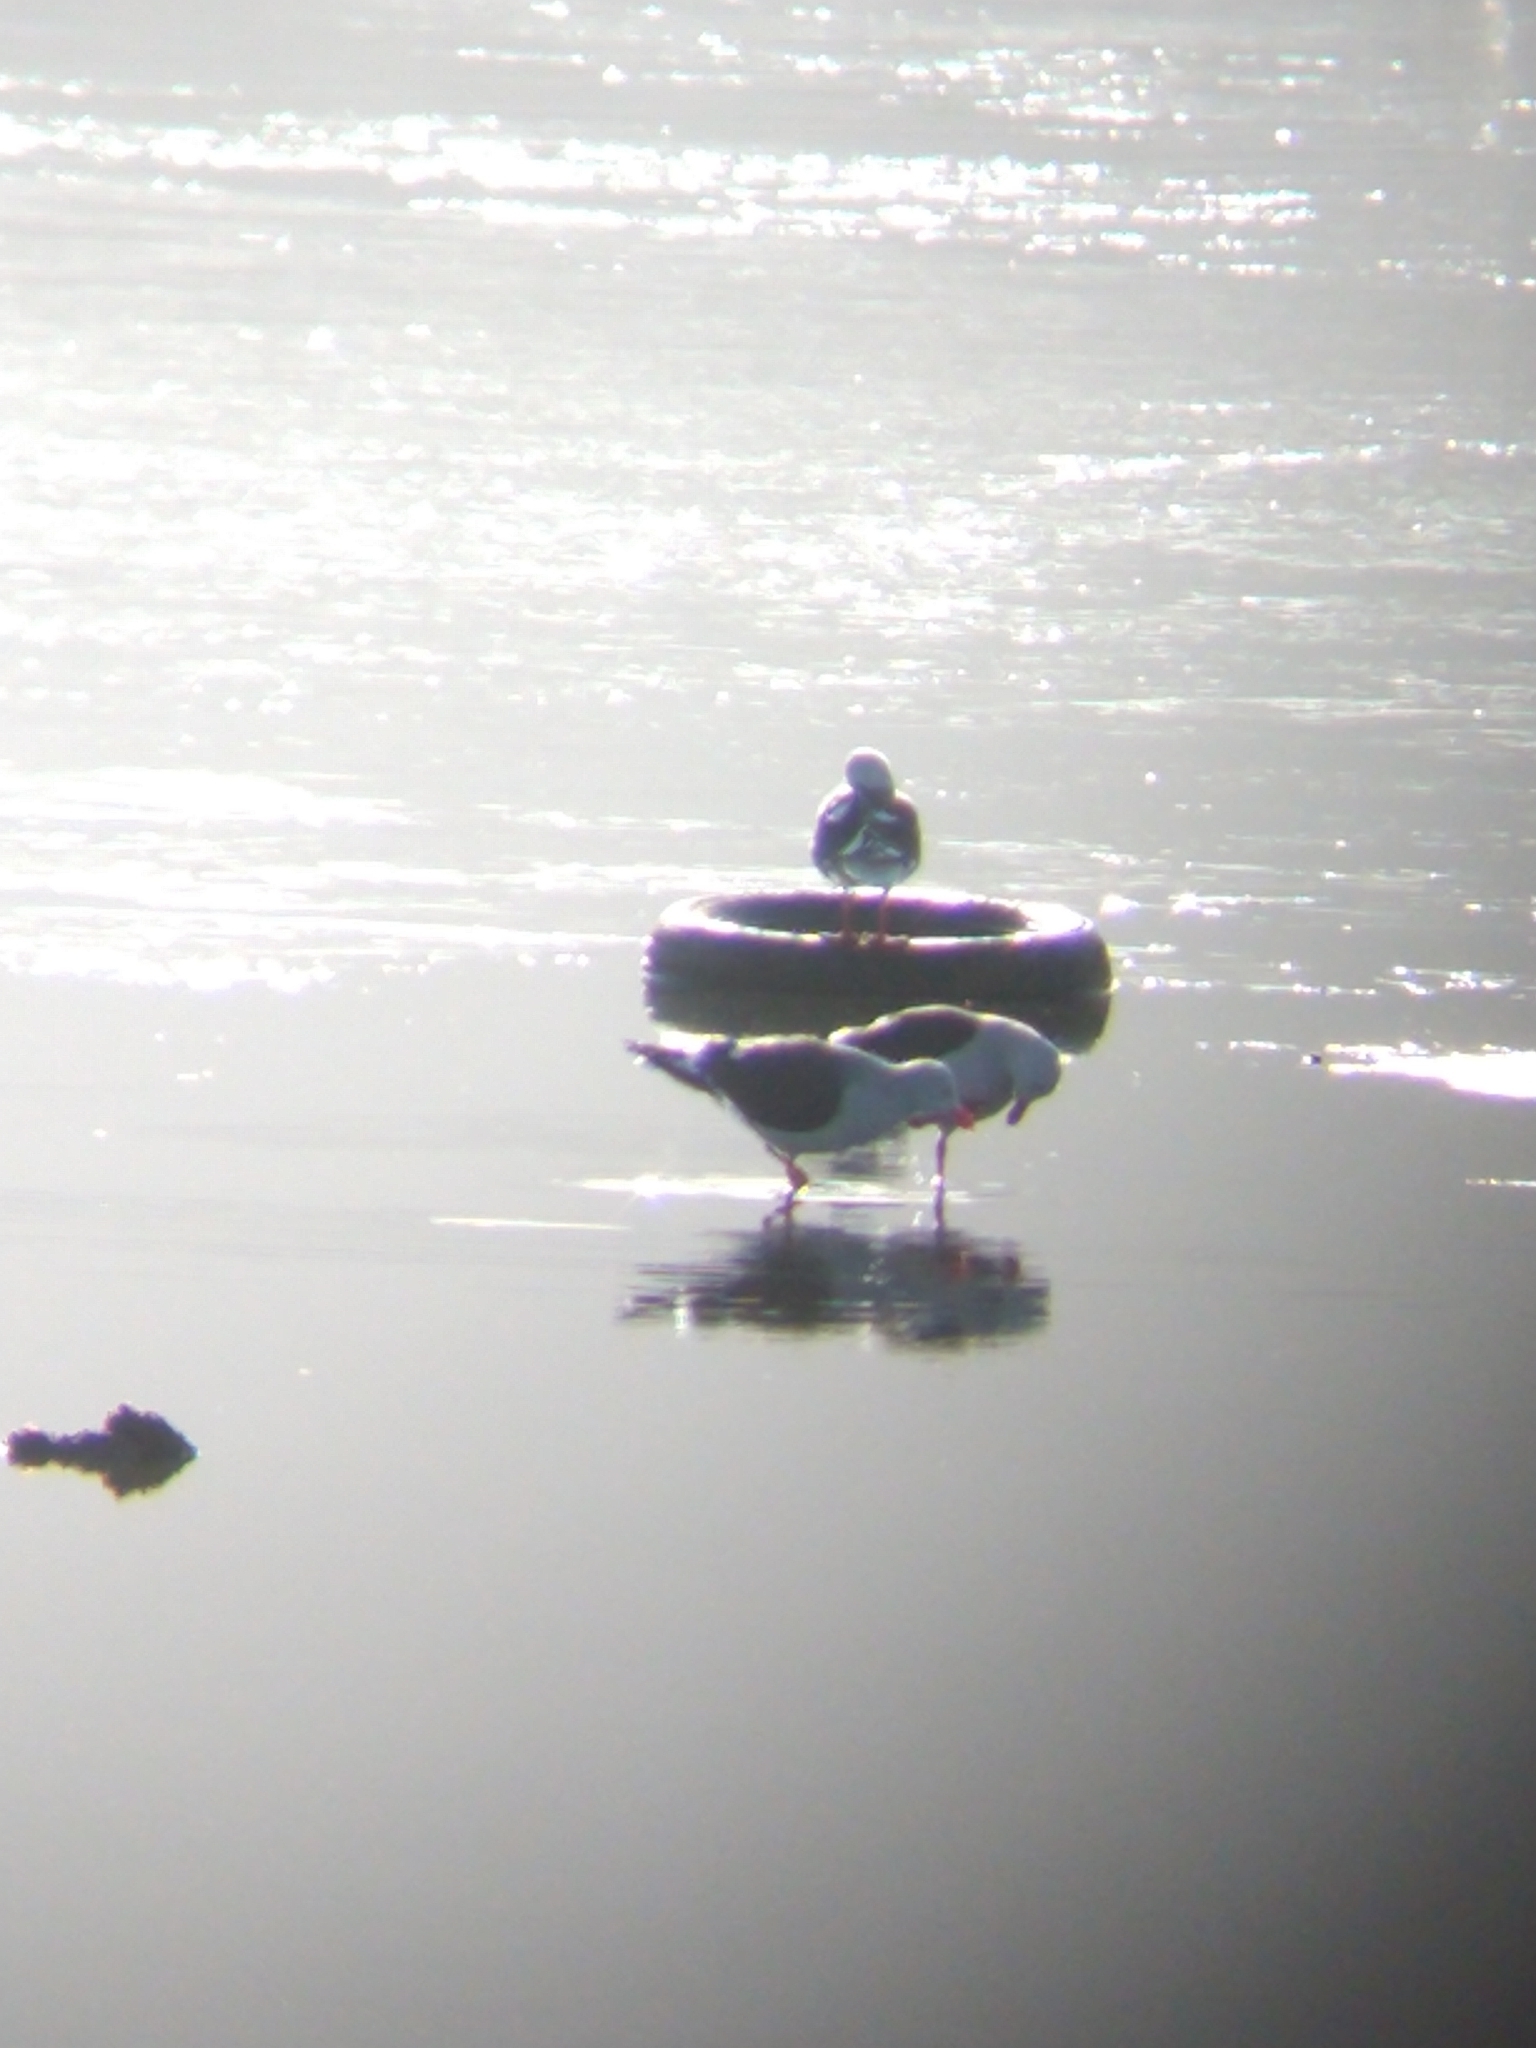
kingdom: Animalia
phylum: Chordata
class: Aves
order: Charadriiformes
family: Laridae
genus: Leucophaeus
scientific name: Leucophaeus scoresbii
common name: Dolphin gull
